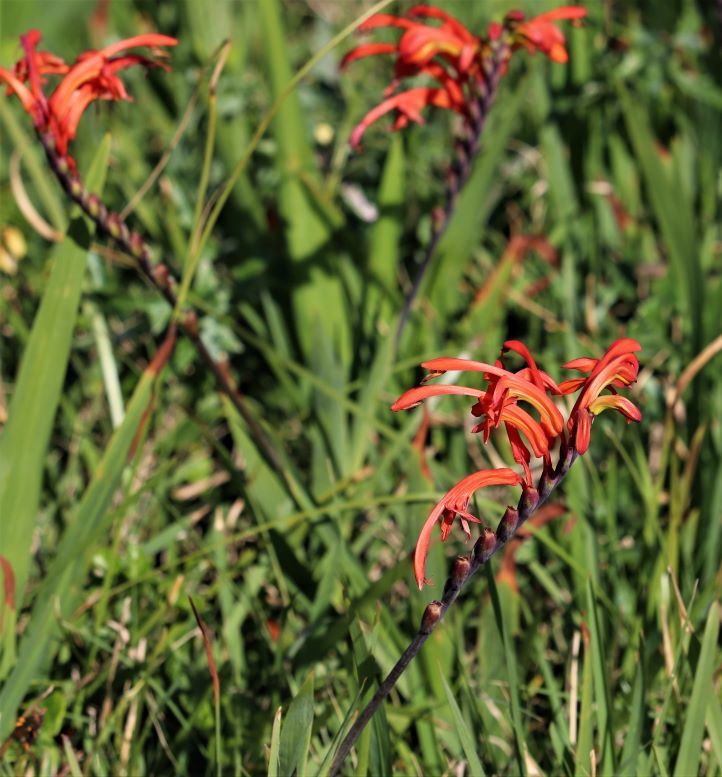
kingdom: Plantae
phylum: Tracheophyta
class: Liliopsida
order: Asparagales
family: Iridaceae
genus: Chasmanthe
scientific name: Chasmanthe aethiopica
